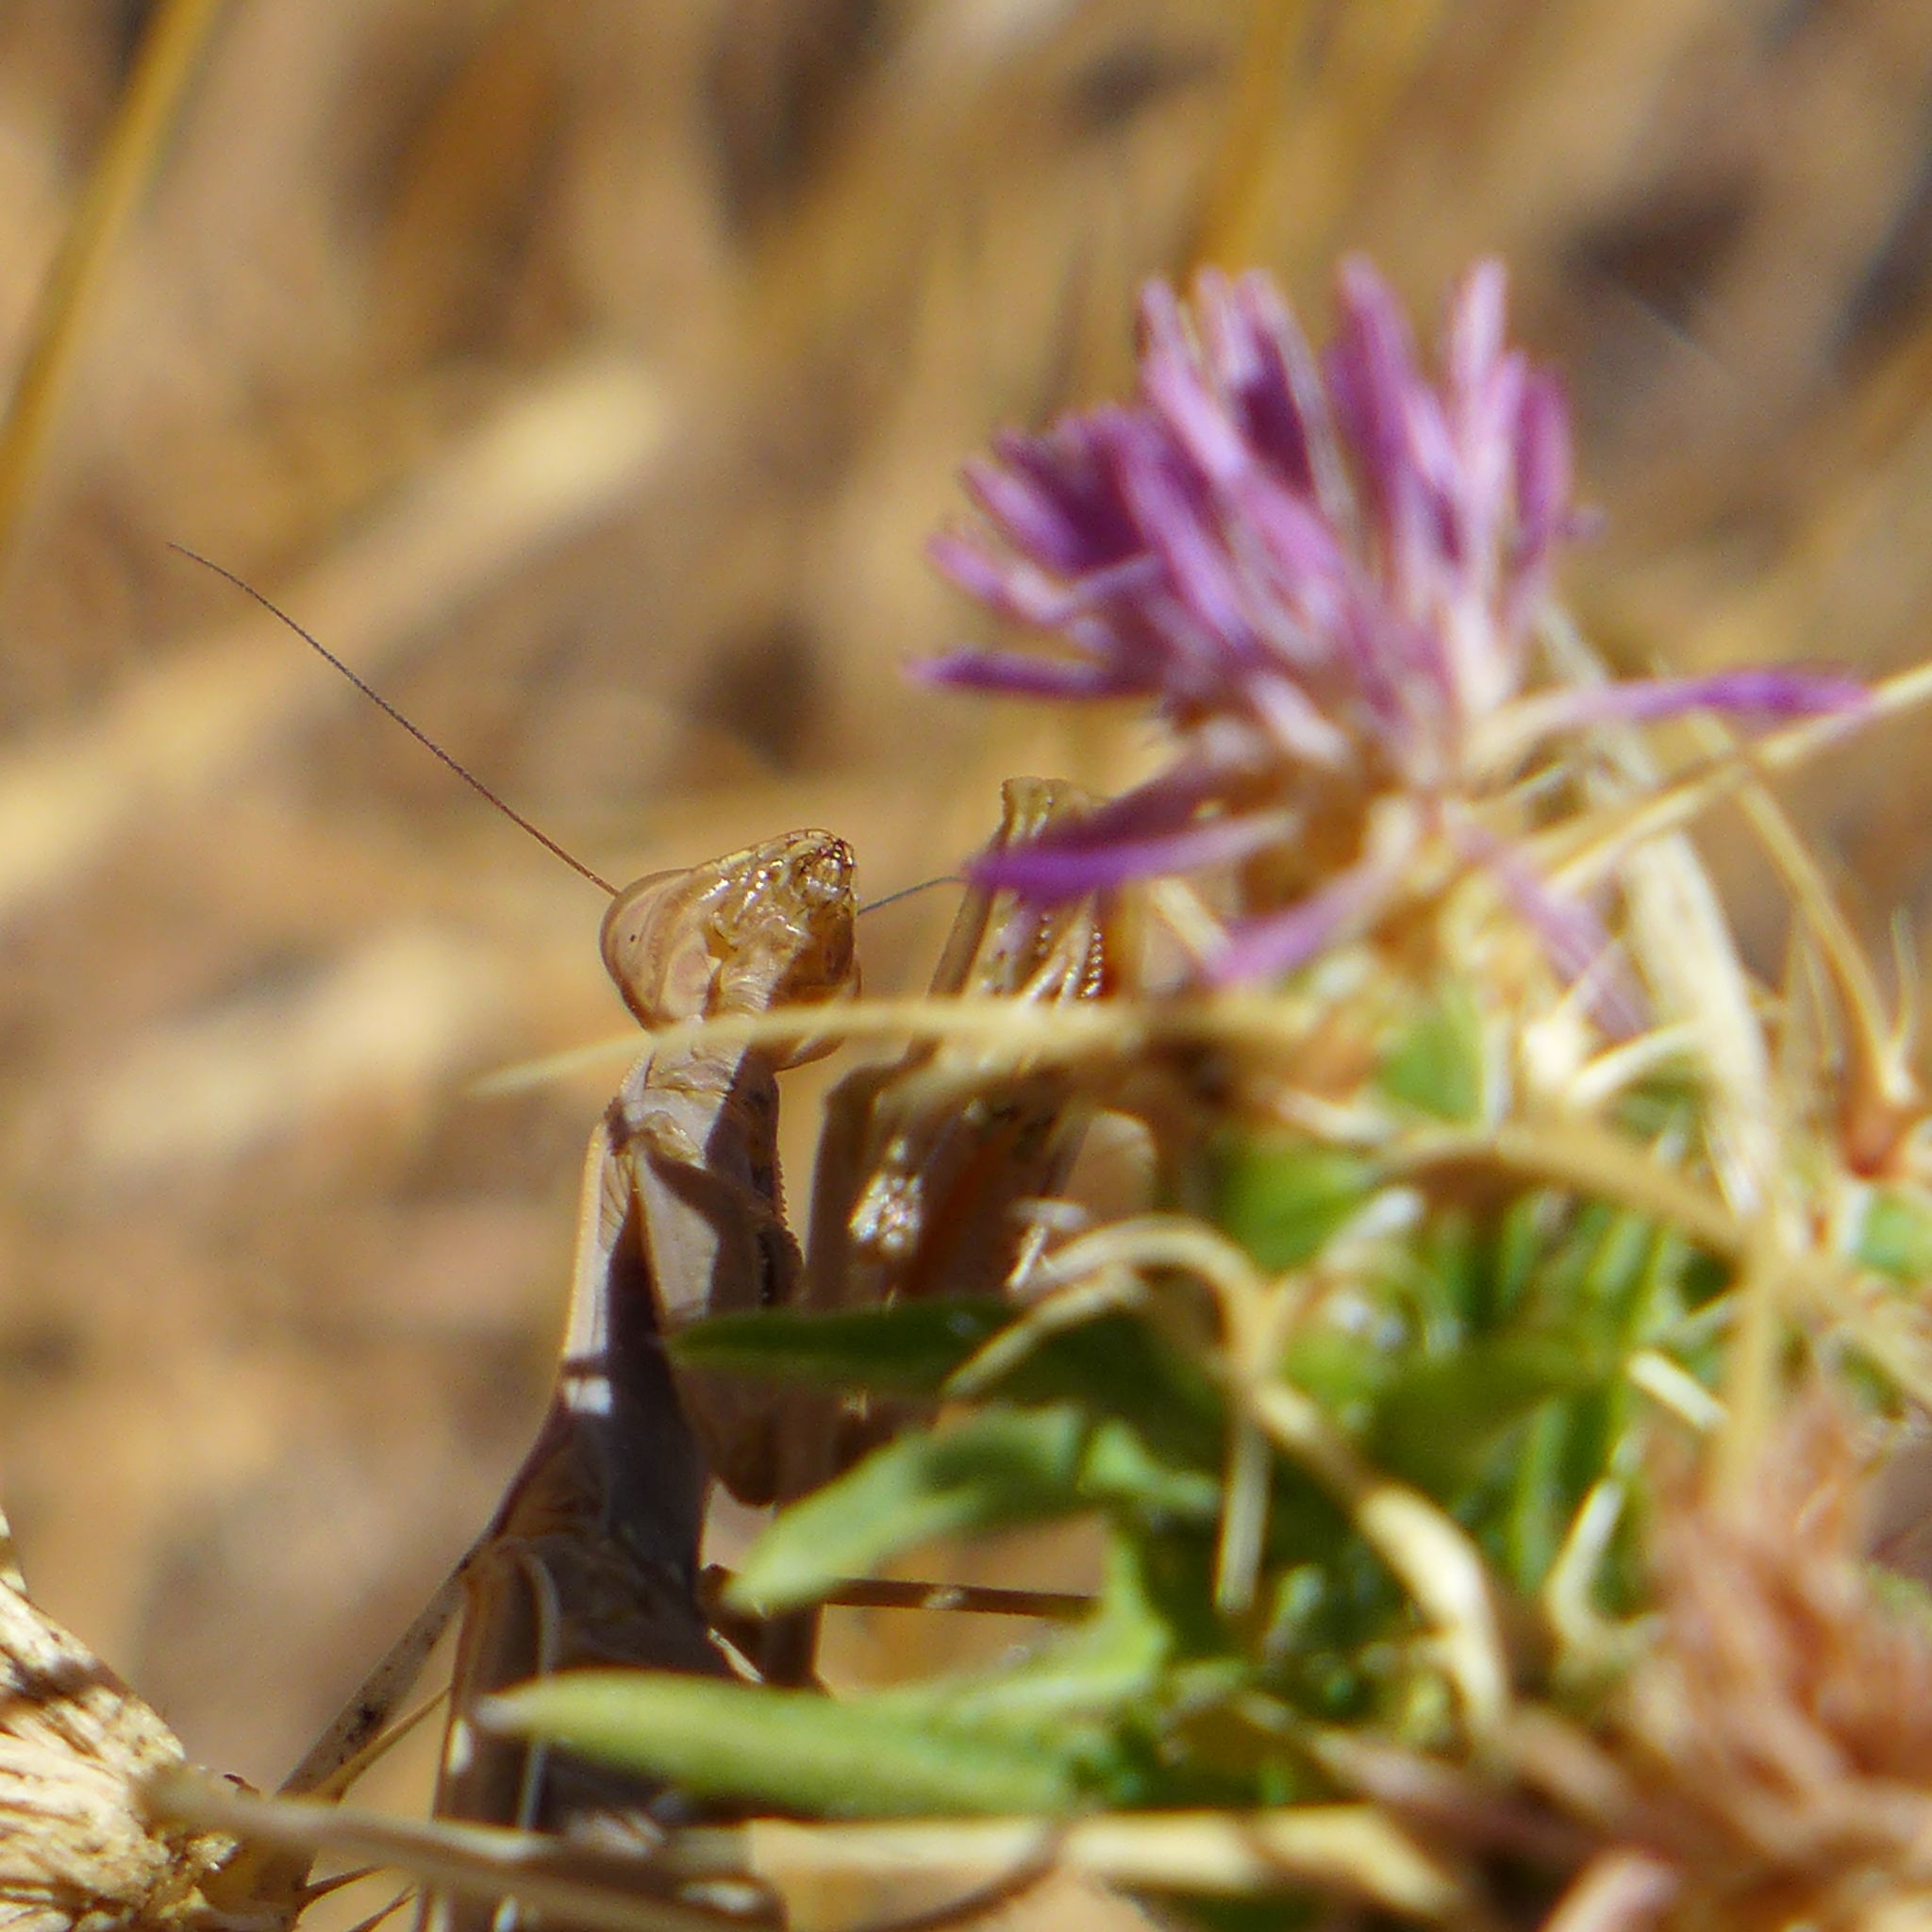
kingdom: Animalia
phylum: Arthropoda
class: Insecta
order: Lepidoptera
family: Lycaenidae
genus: Strymon
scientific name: Strymon melinus
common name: Gray hairstreak
